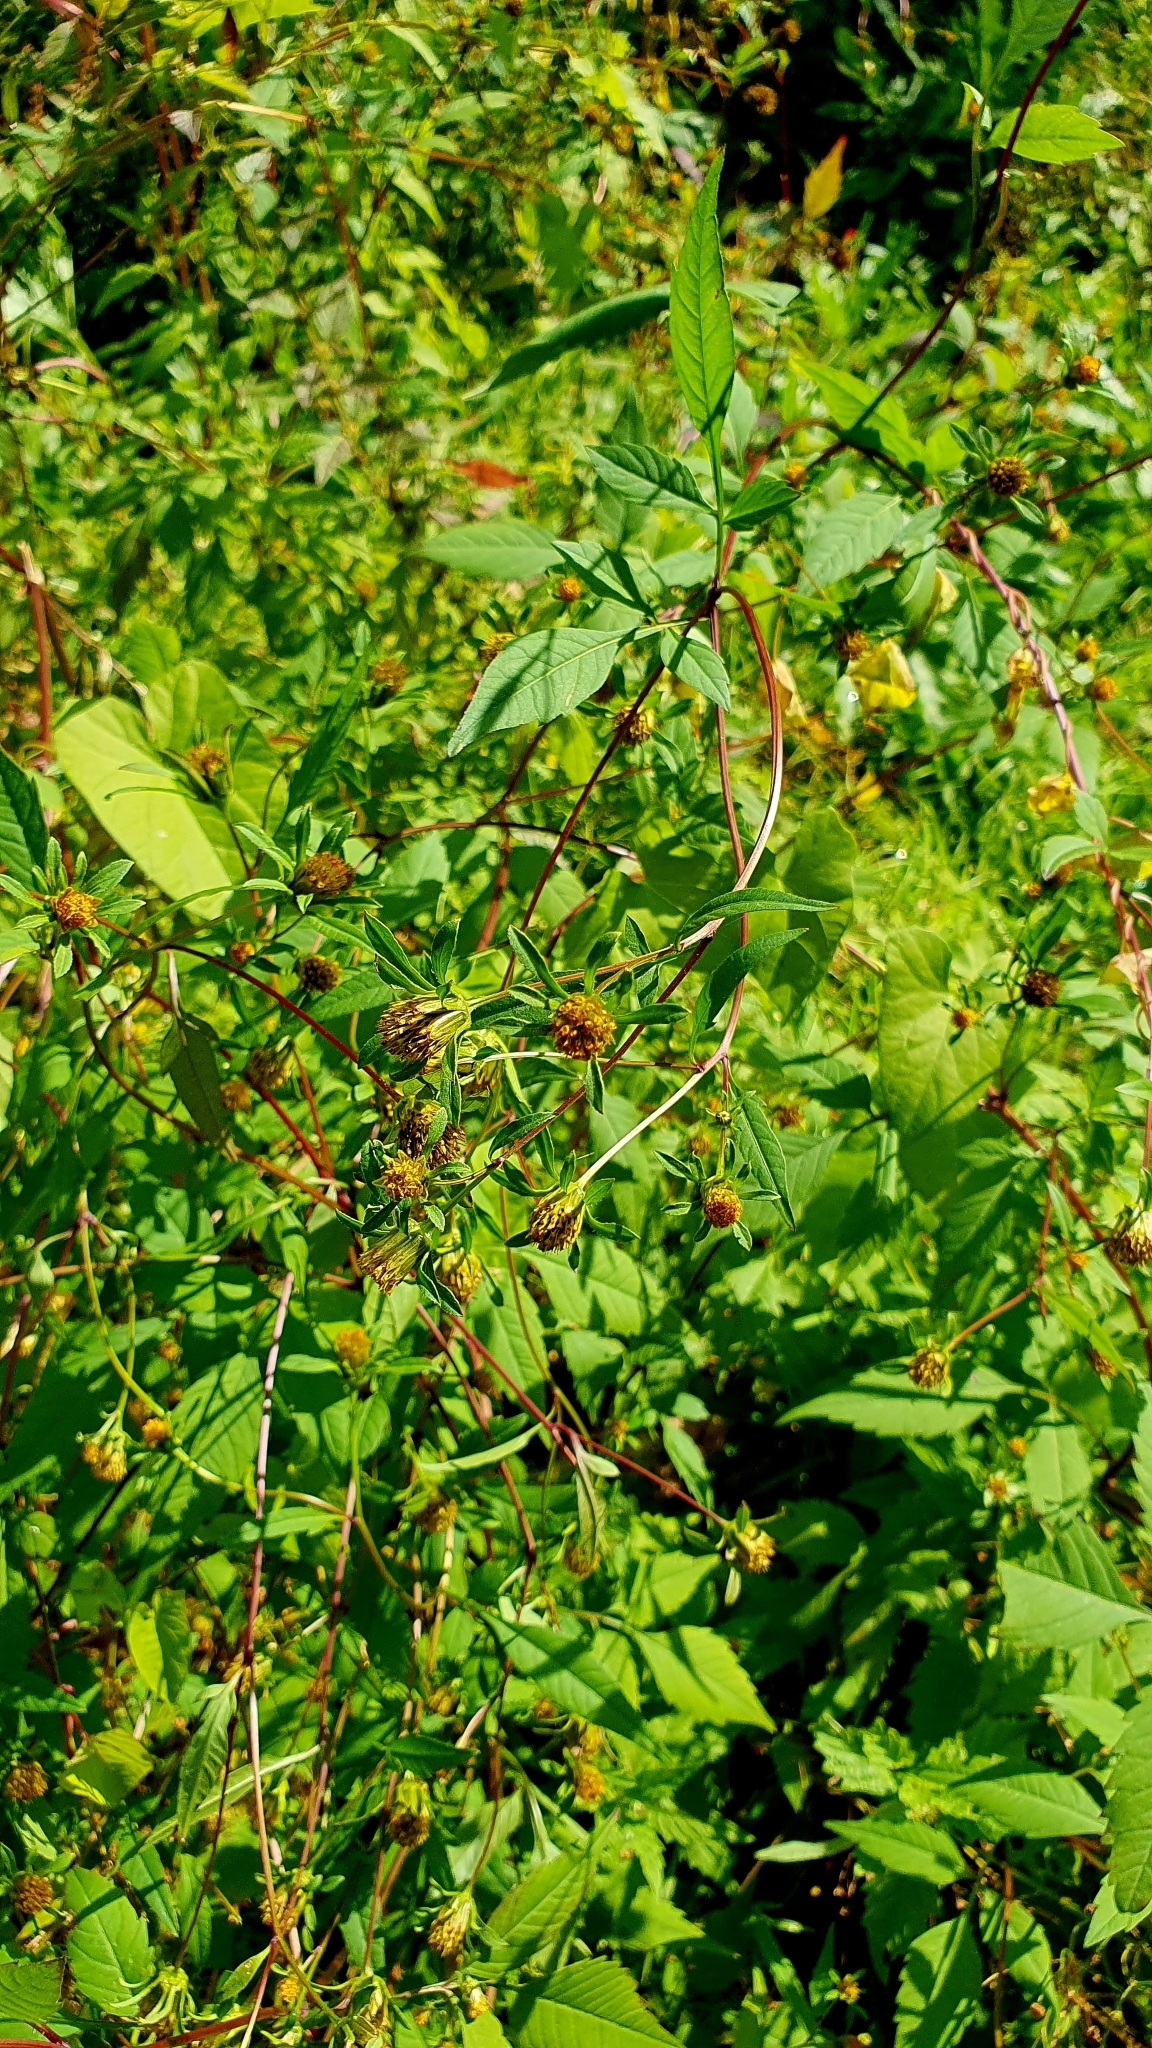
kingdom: Plantae
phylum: Tracheophyta
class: Magnoliopsida
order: Asterales
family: Asteraceae
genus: Bidens
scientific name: Bidens frondosa
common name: Beggarticks
